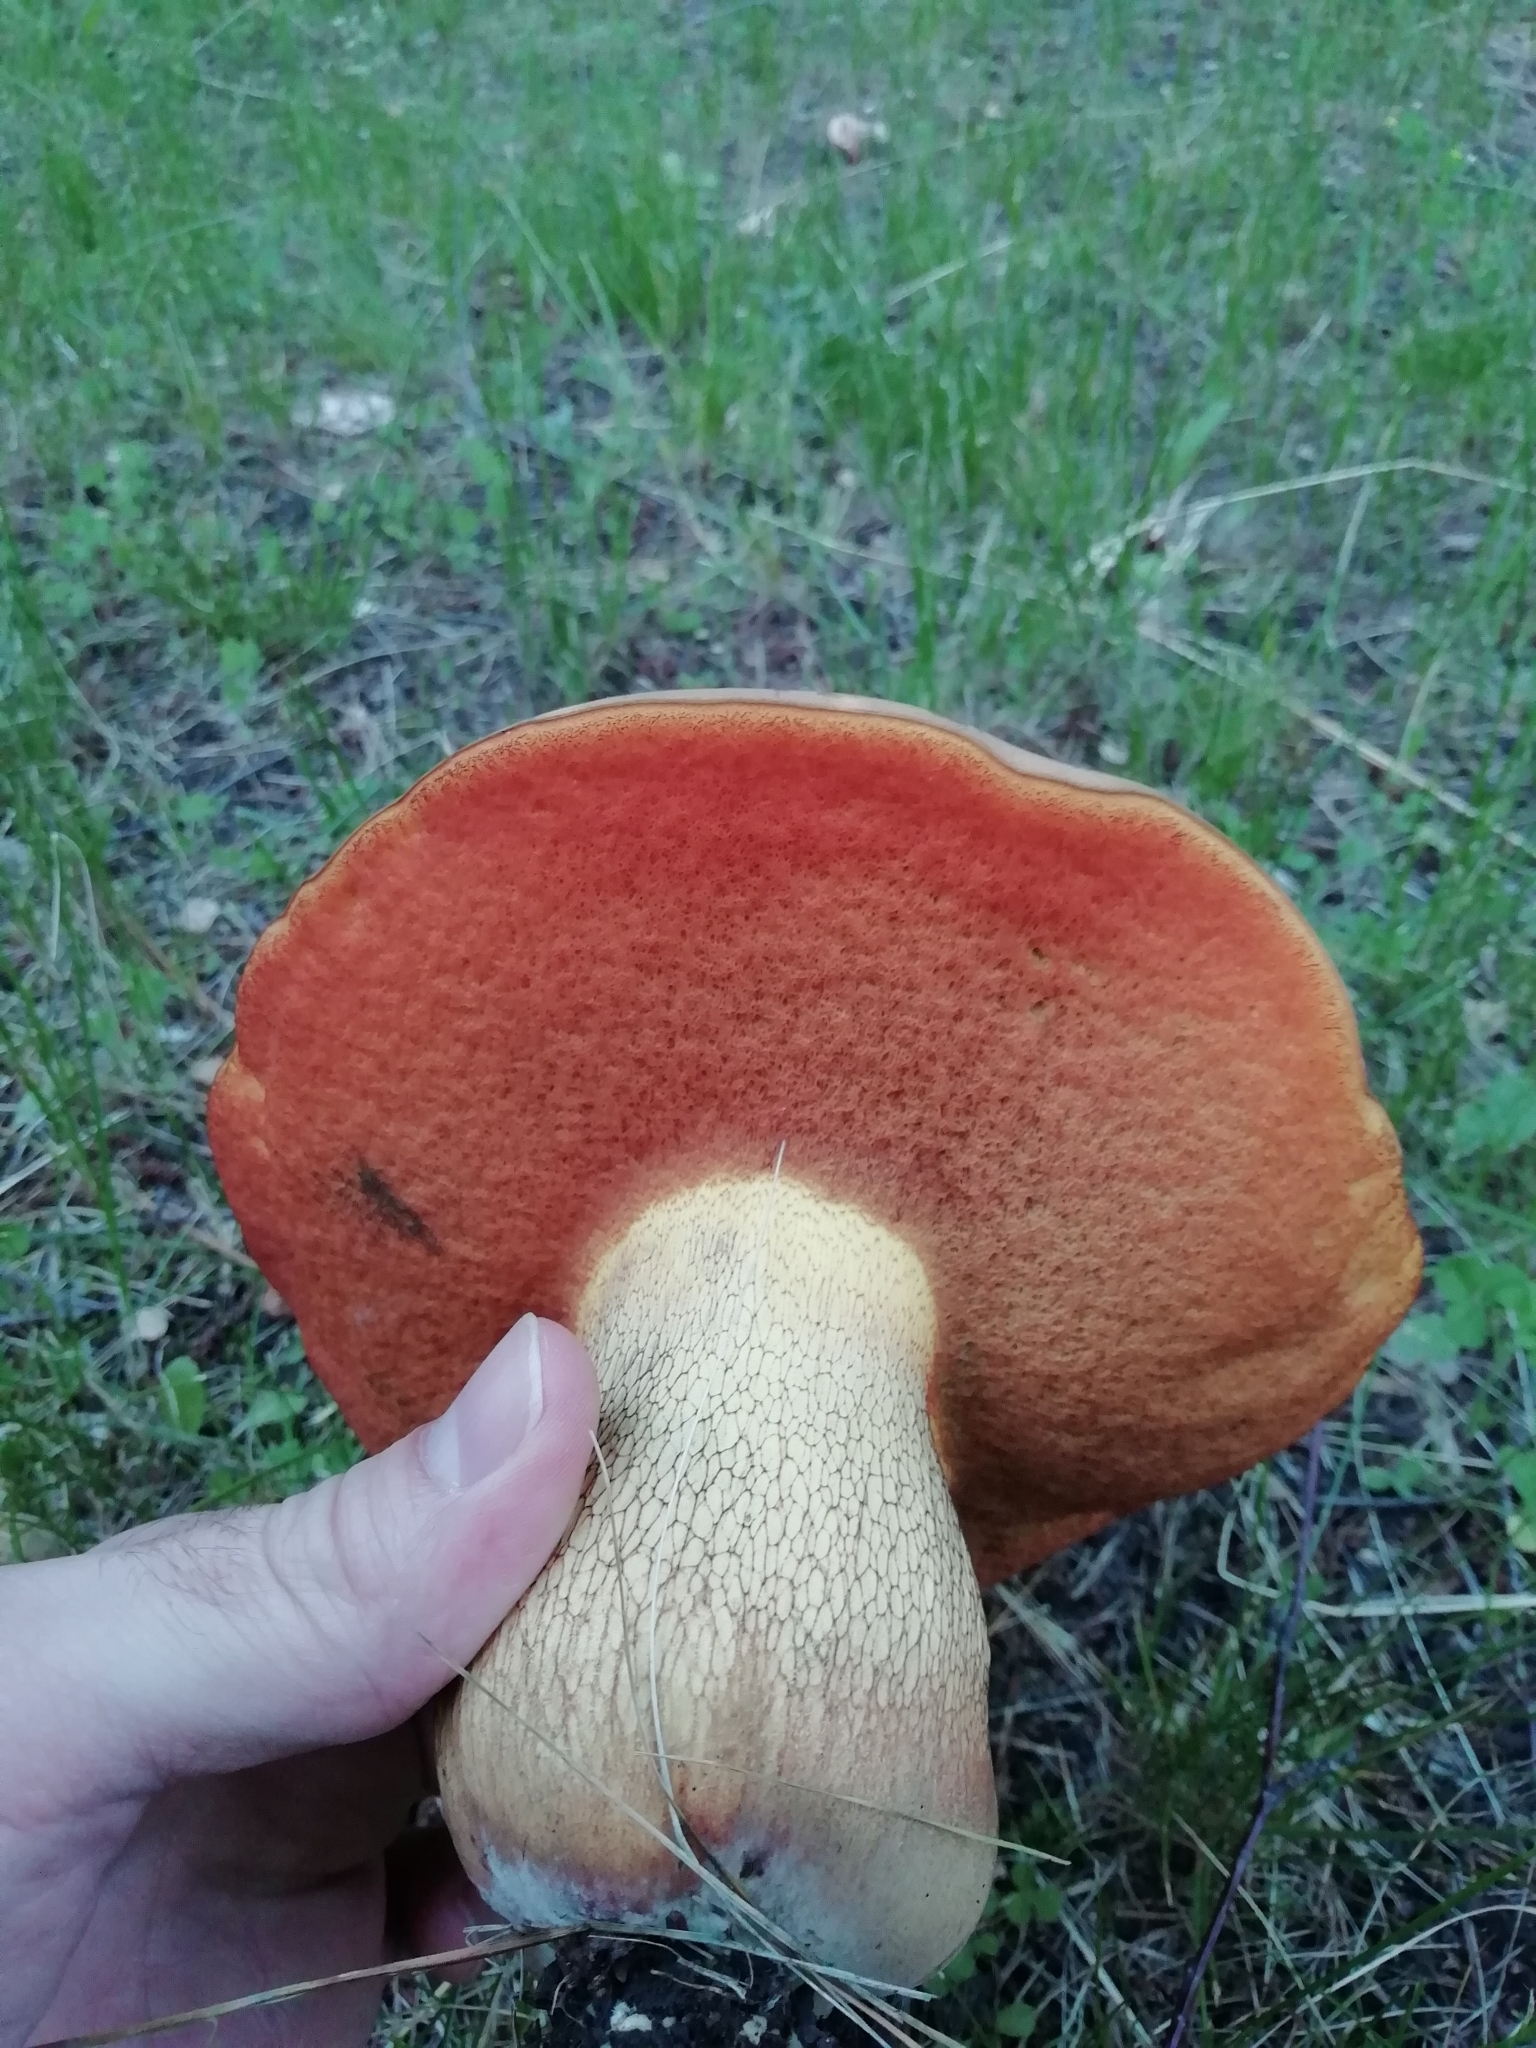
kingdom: Fungi
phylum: Basidiomycota
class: Agaricomycetes
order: Boletales
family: Boletaceae
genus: Suillellus
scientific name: Suillellus luridus
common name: Lurid bolete
